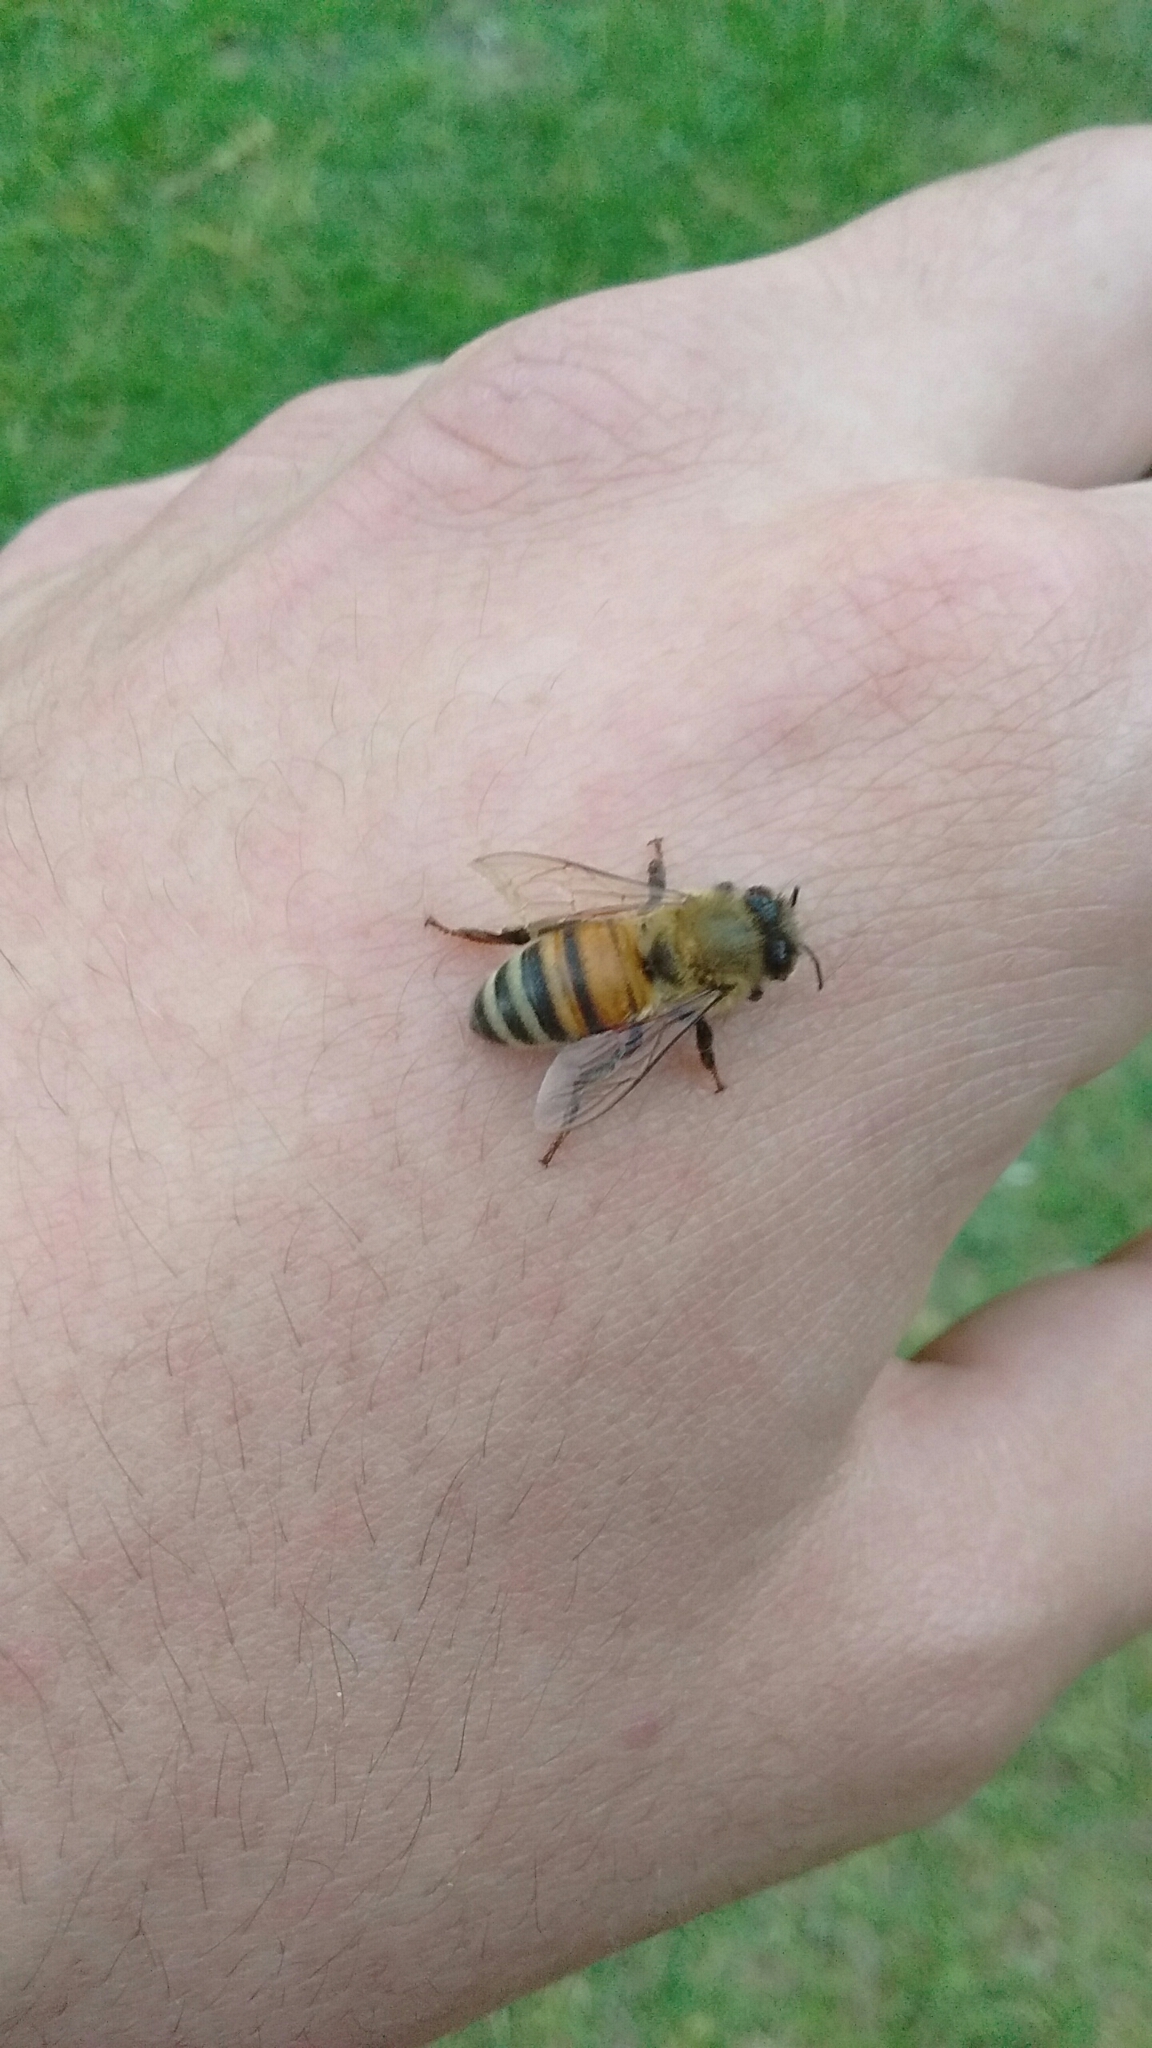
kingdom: Animalia
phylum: Arthropoda
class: Insecta
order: Hymenoptera
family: Apidae
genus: Apis
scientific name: Apis mellifera
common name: Honey bee
